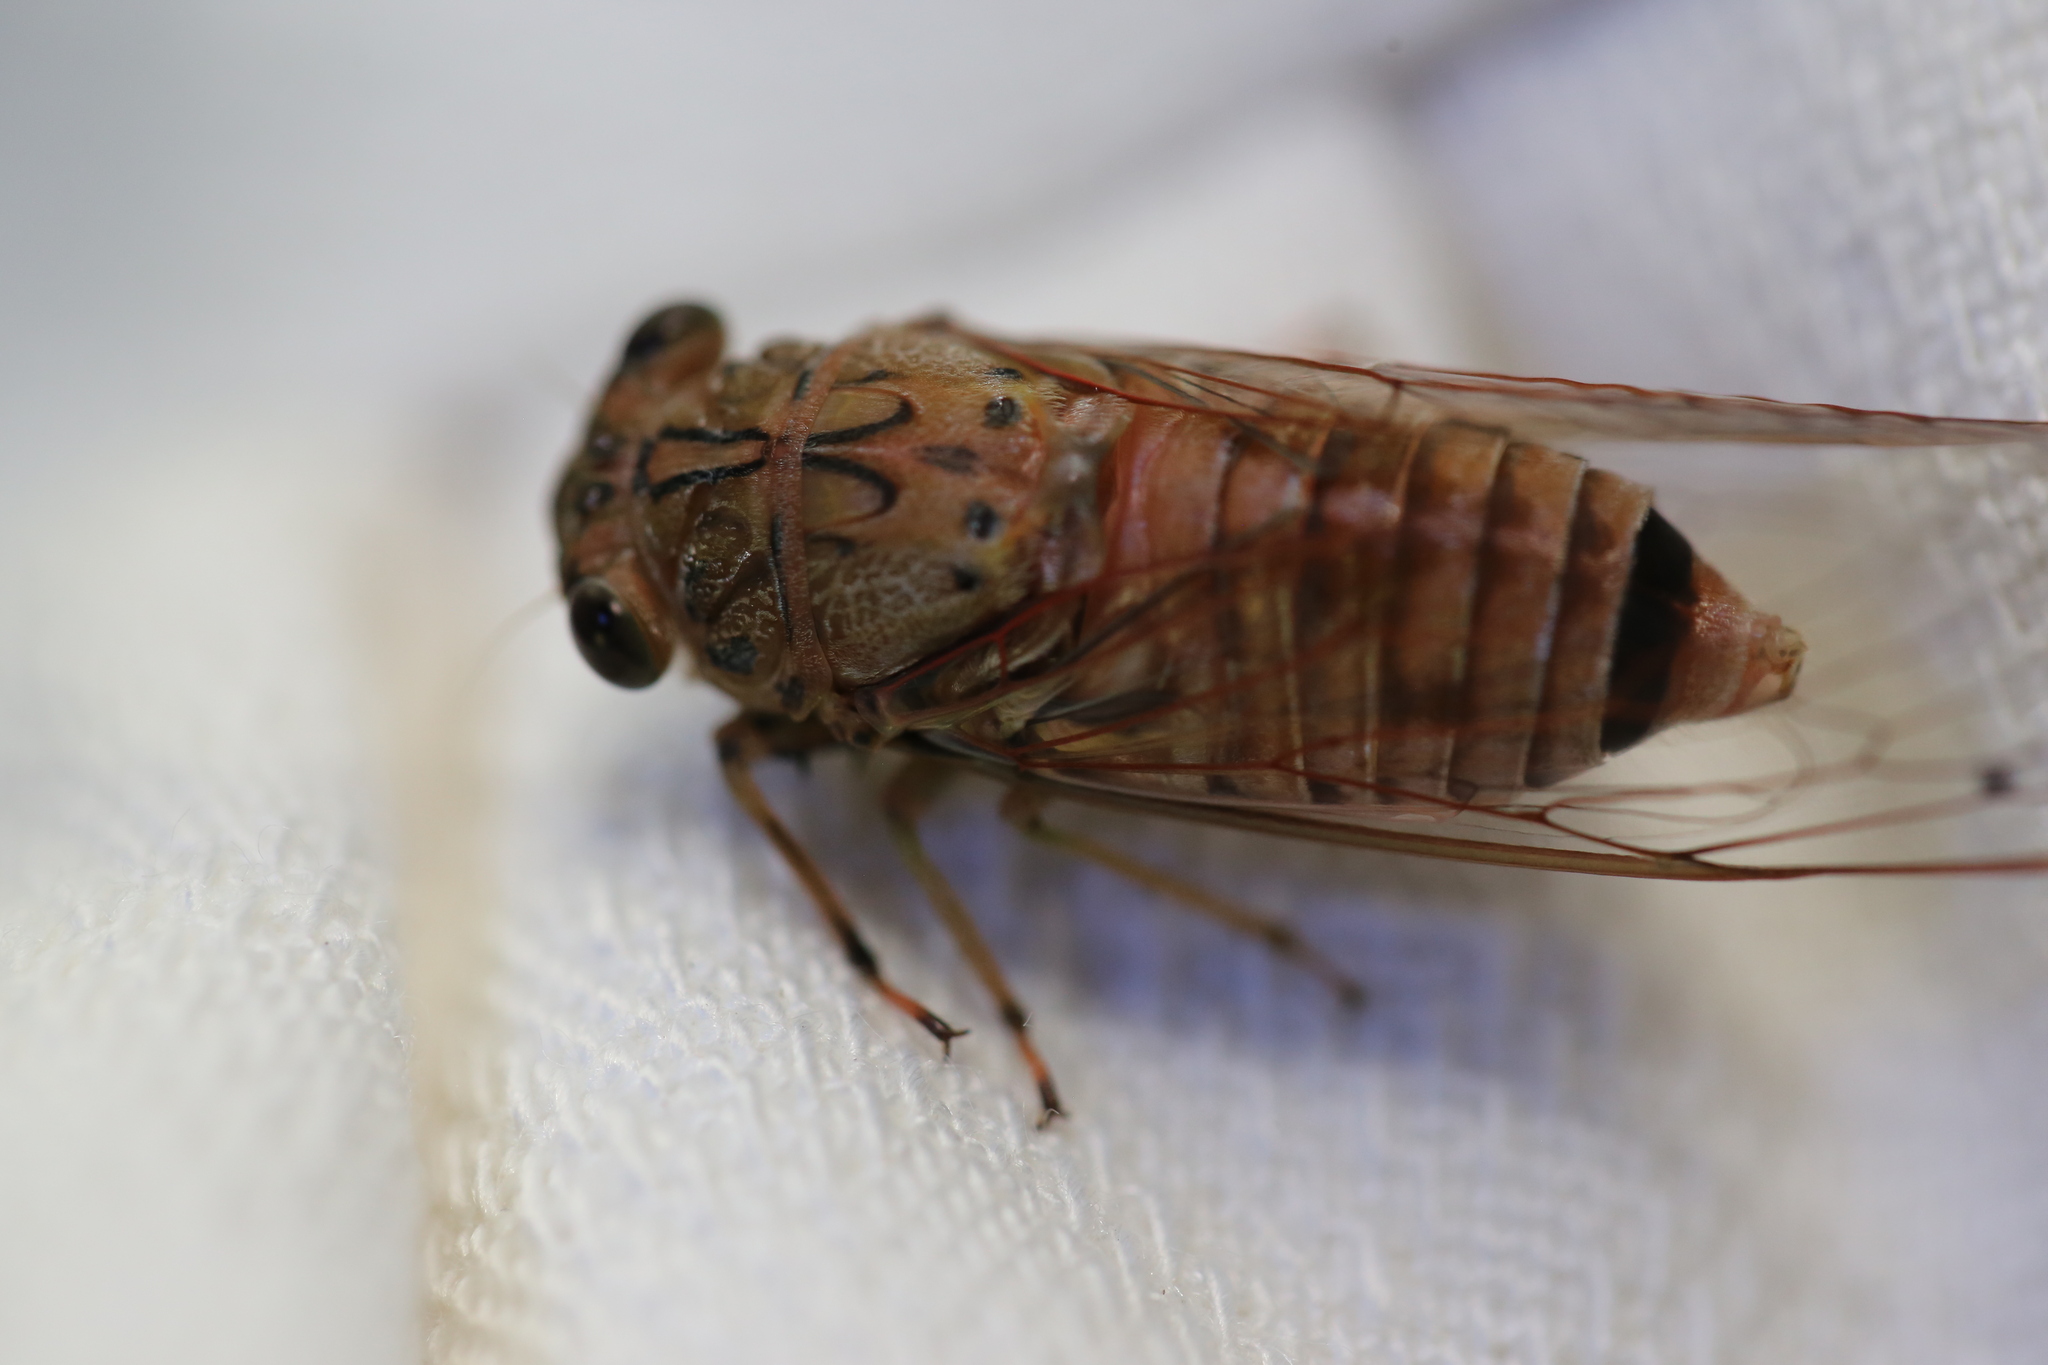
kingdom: Animalia
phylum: Arthropoda
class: Insecta
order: Hemiptera
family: Cicadidae
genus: Tamasa
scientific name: Tamasa tristigma
